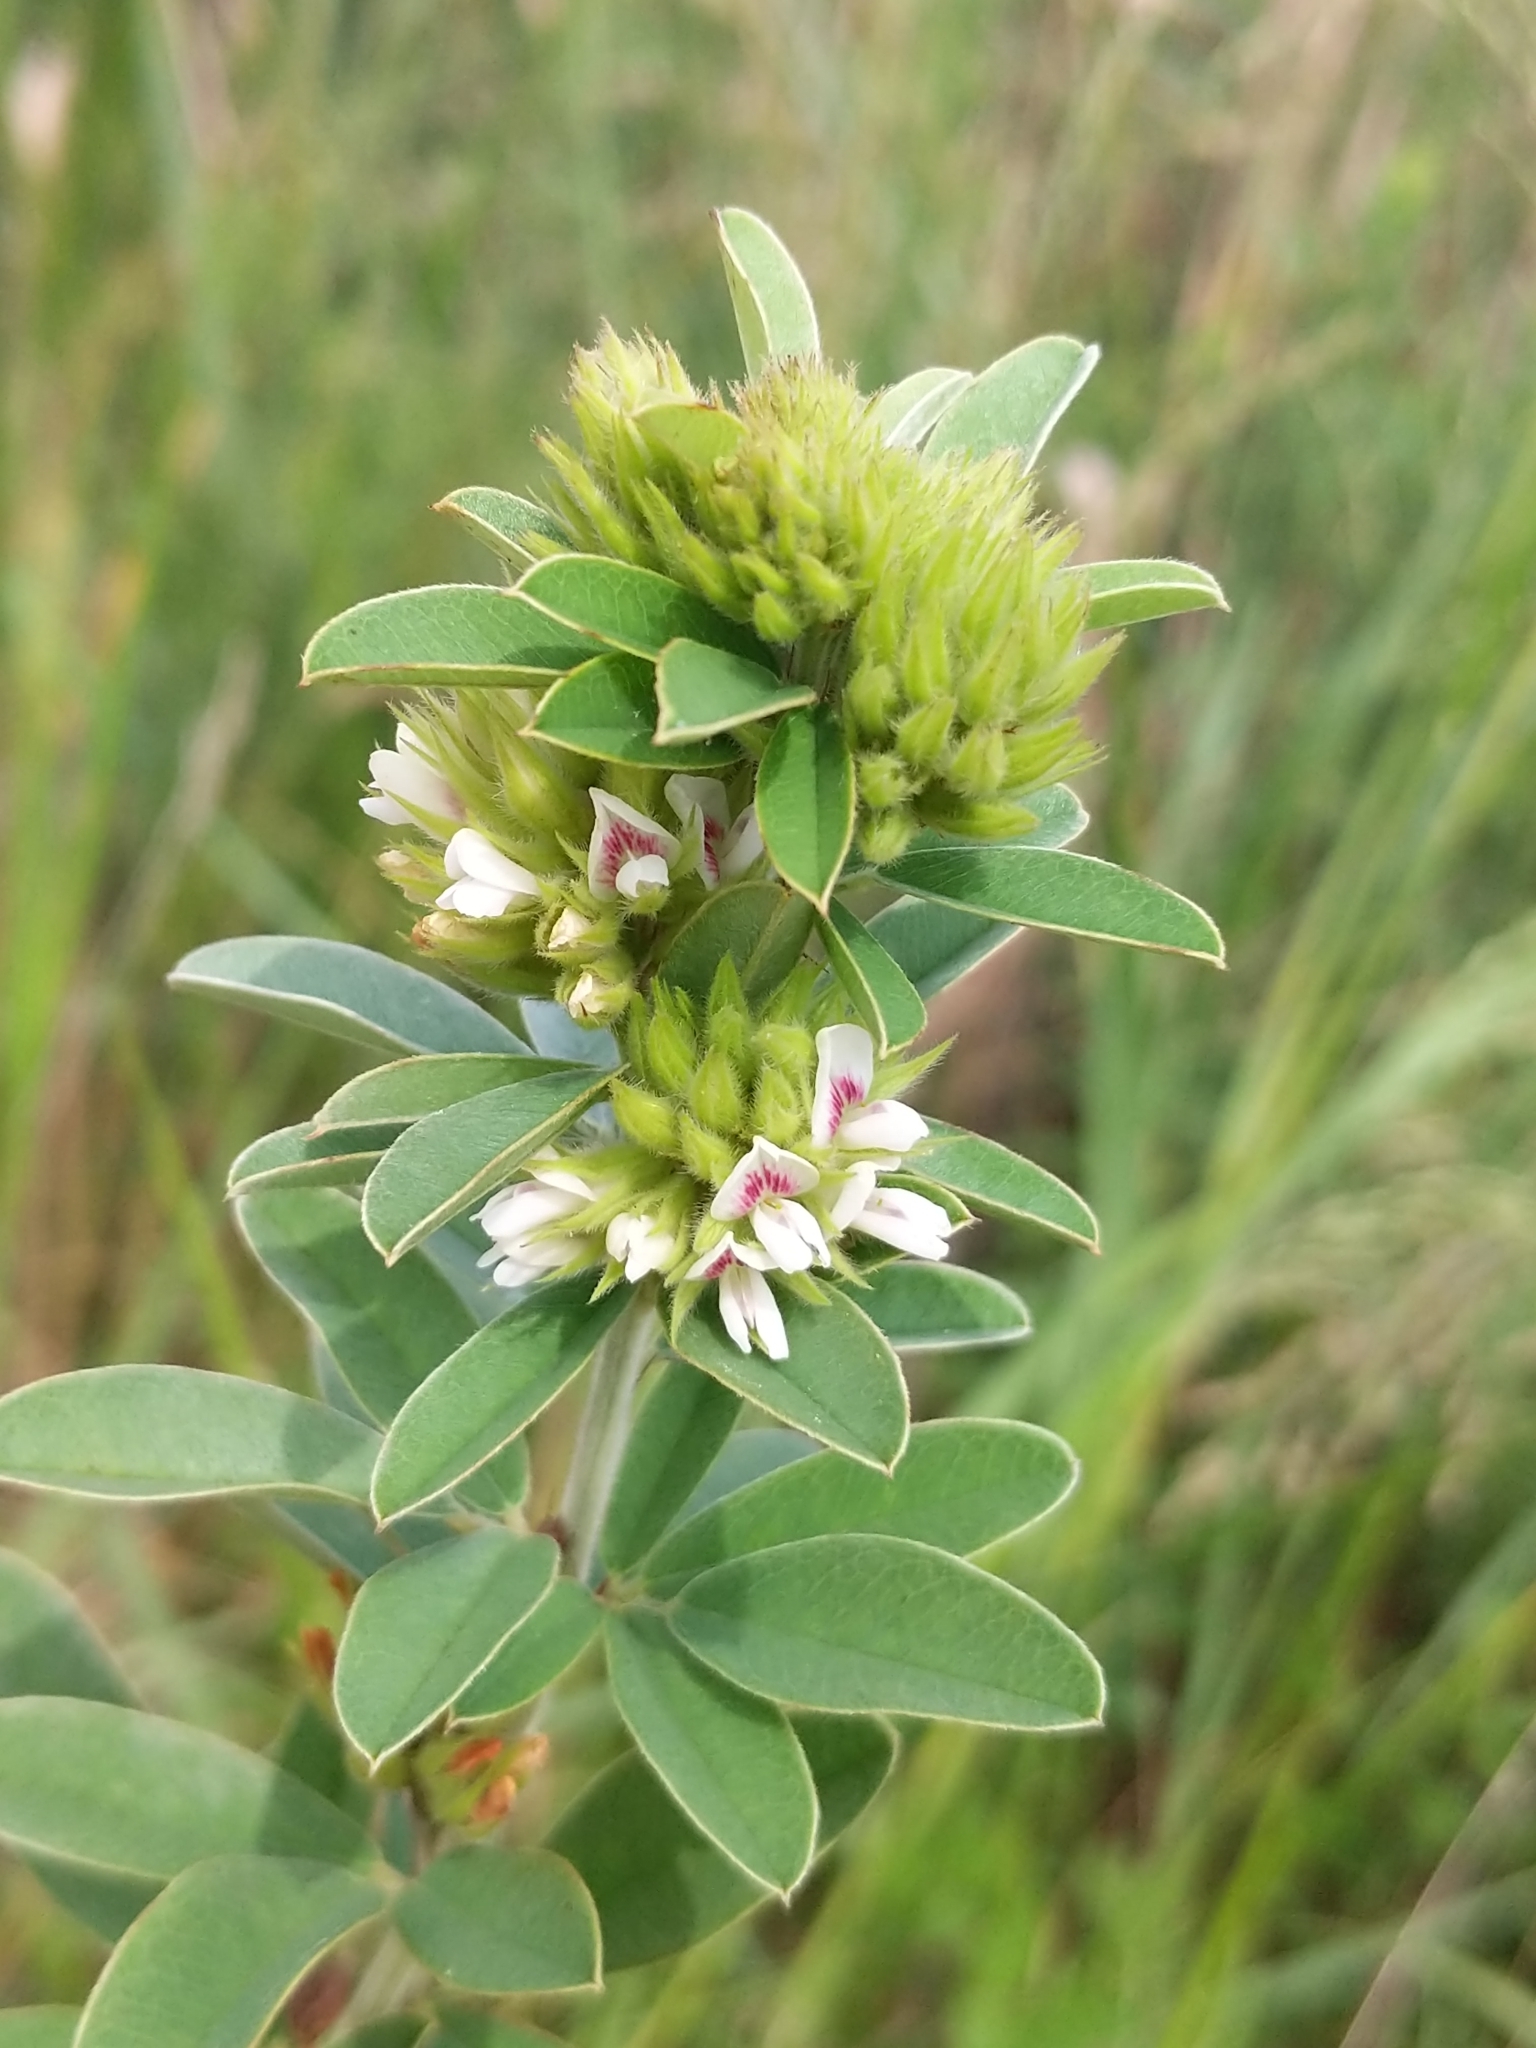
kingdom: Plantae
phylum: Tracheophyta
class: Magnoliopsida
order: Fabales
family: Fabaceae
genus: Lespedeza
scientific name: Lespedeza capitata
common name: Dusty clover
